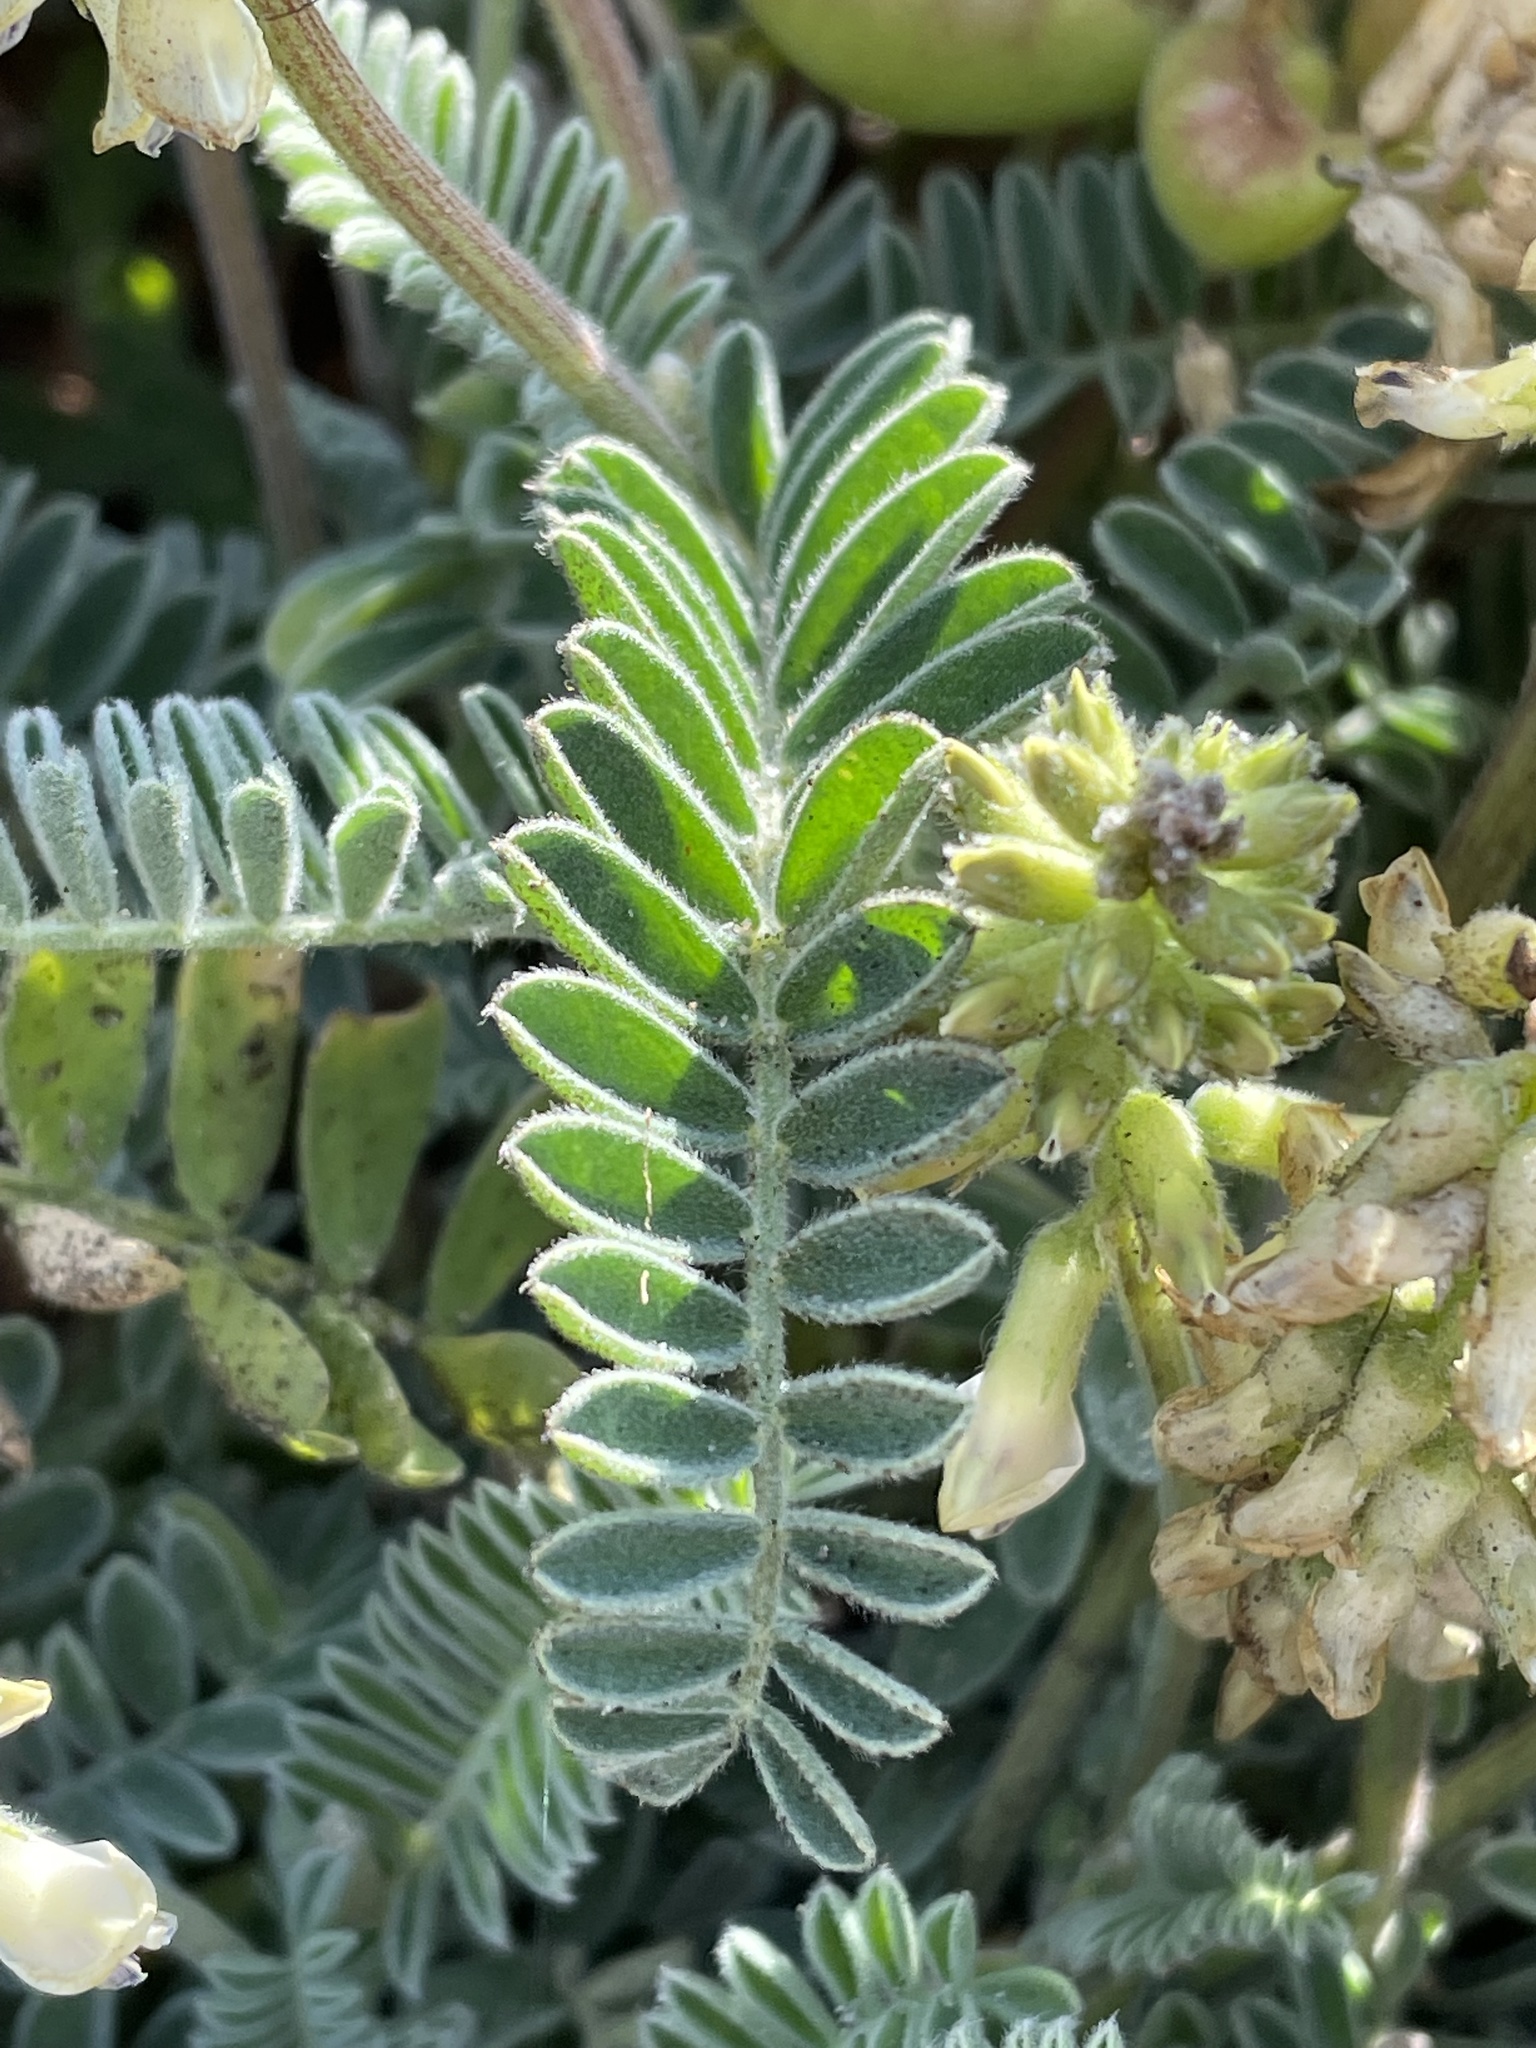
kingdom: Plantae
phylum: Tracheophyta
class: Magnoliopsida
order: Fabales
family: Fabaceae
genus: Astragalus
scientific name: Astragalus nuttallii
